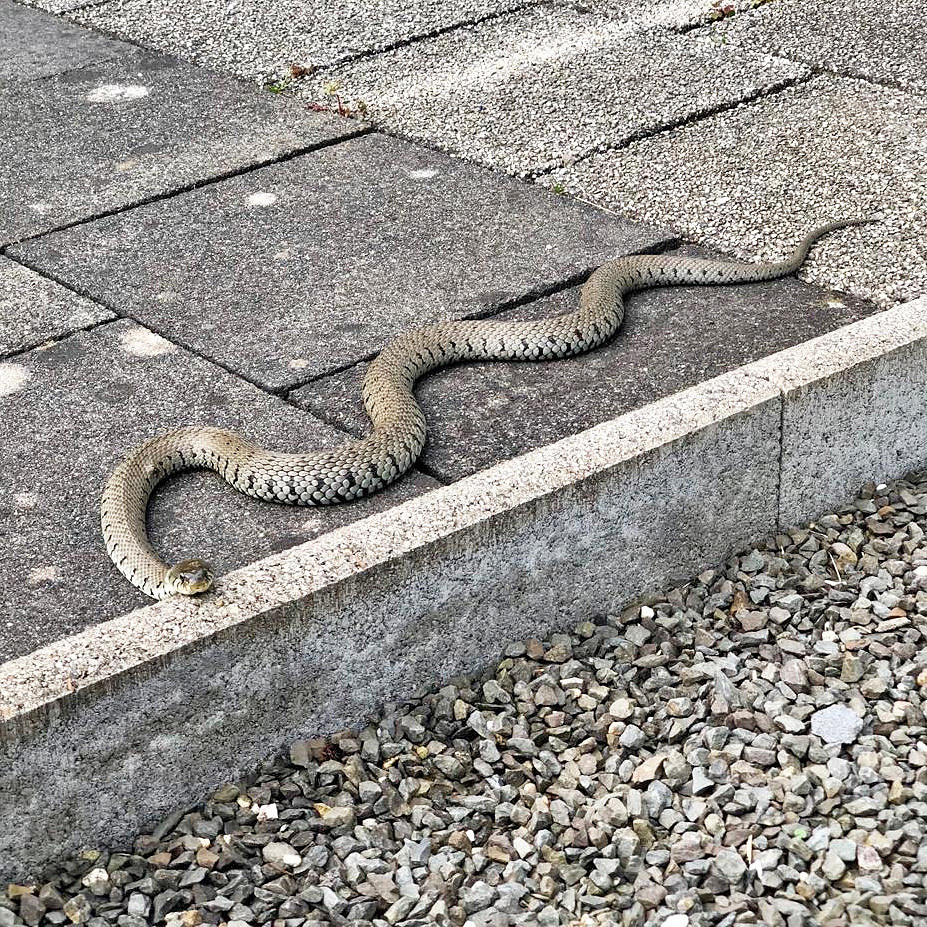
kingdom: Animalia
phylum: Chordata
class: Squamata
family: Colubridae
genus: Natrix
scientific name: Natrix helvetica
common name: Banded grass snake
